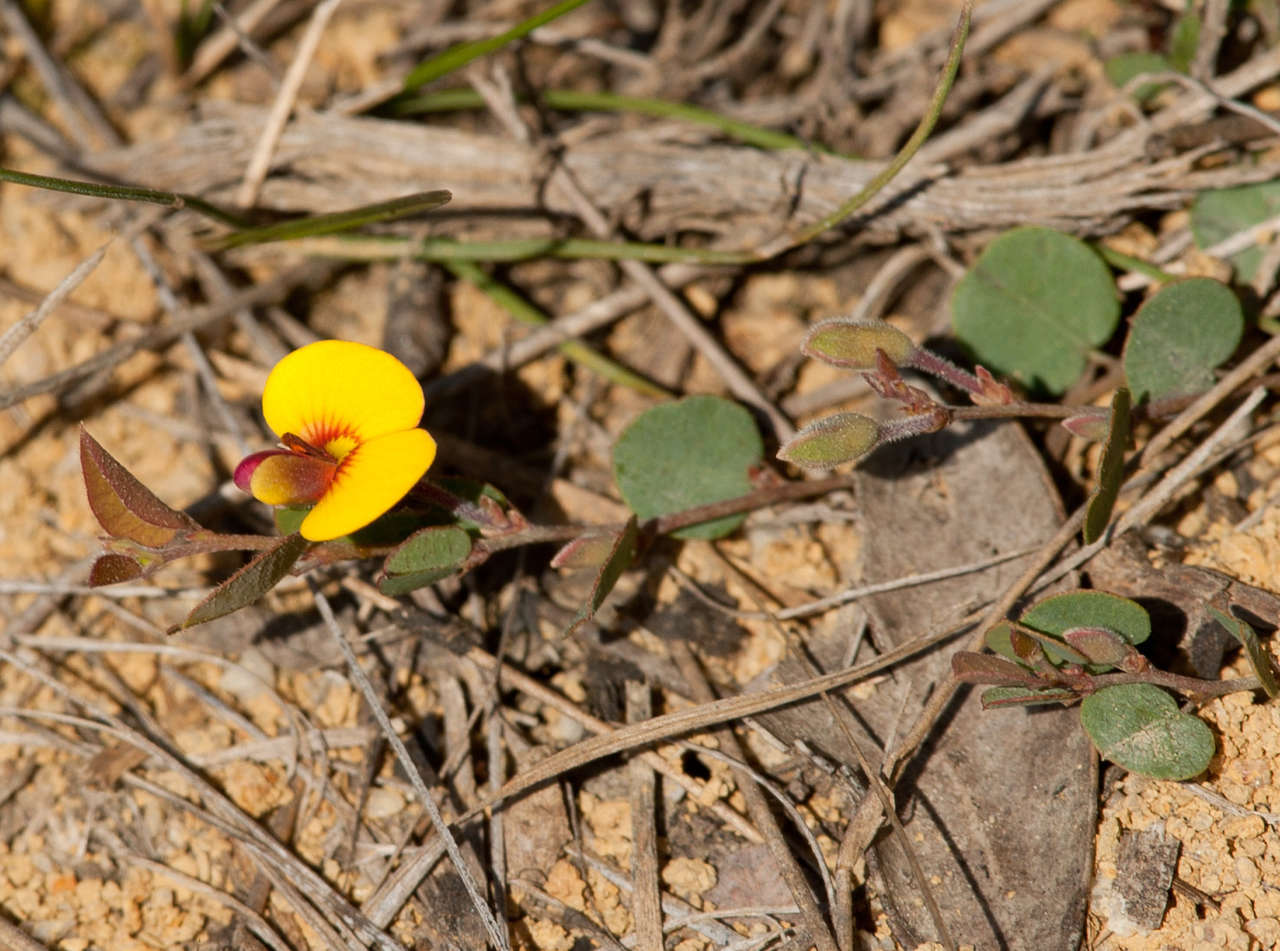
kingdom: Plantae
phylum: Tracheophyta
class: Magnoliopsida
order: Fabales
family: Fabaceae
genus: Bossiaea
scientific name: Bossiaea prostrata
